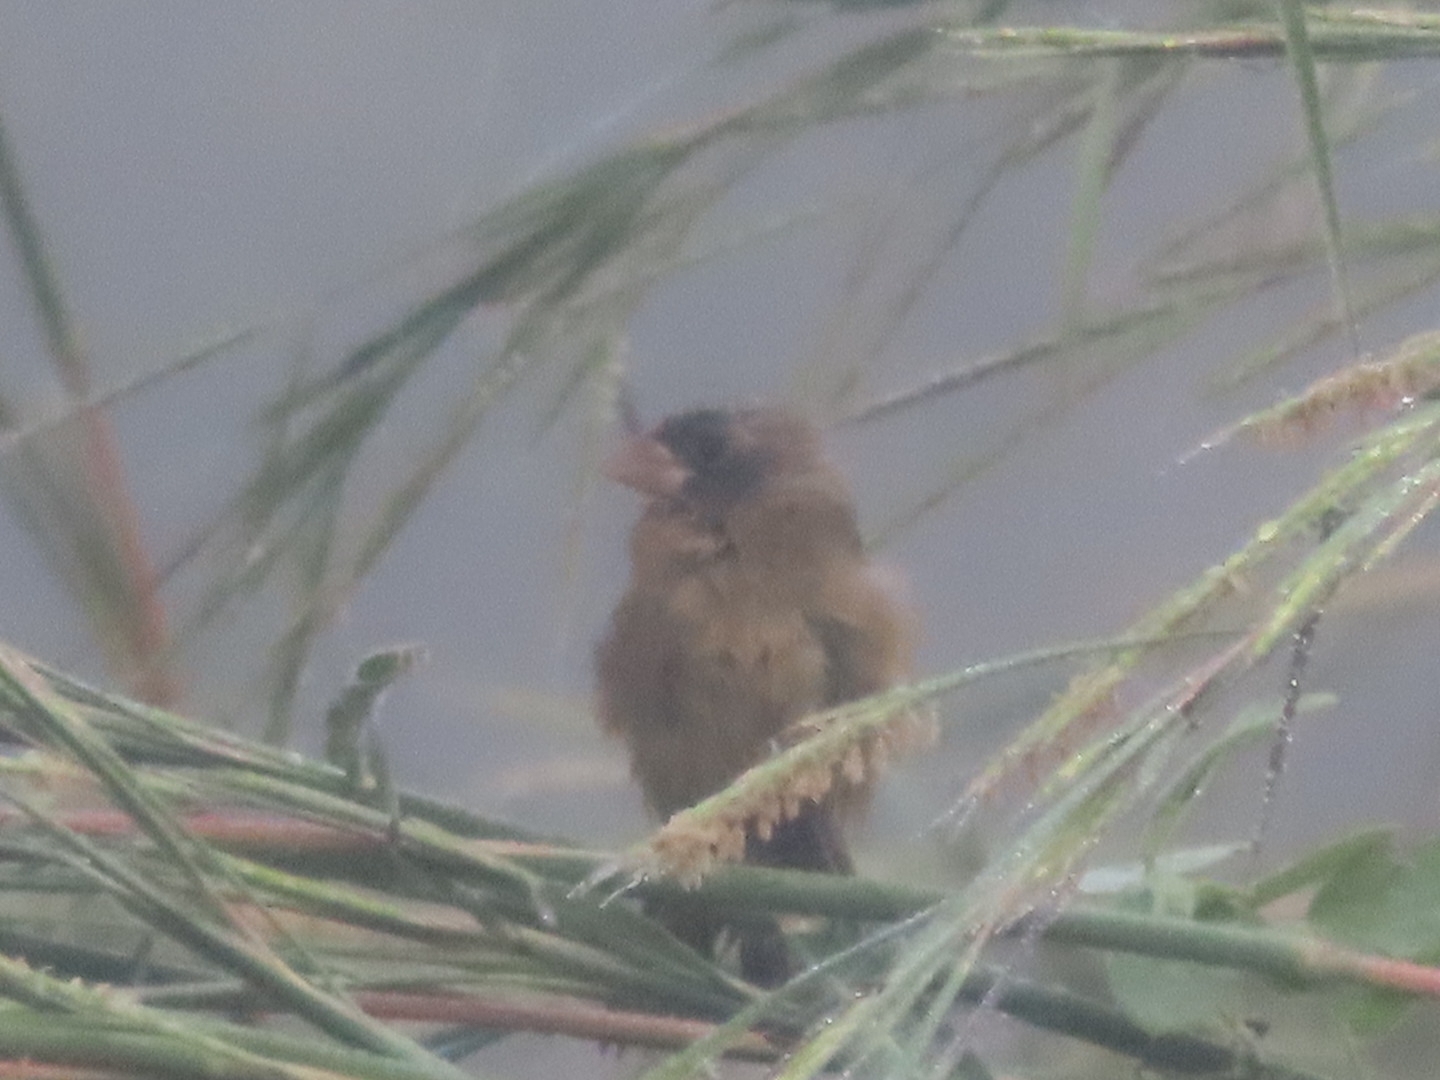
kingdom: Animalia
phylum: Chordata
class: Aves
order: Passeriformes
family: Cardinalidae
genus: Passerina
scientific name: Passerina caerulea
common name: Blue grosbeak
